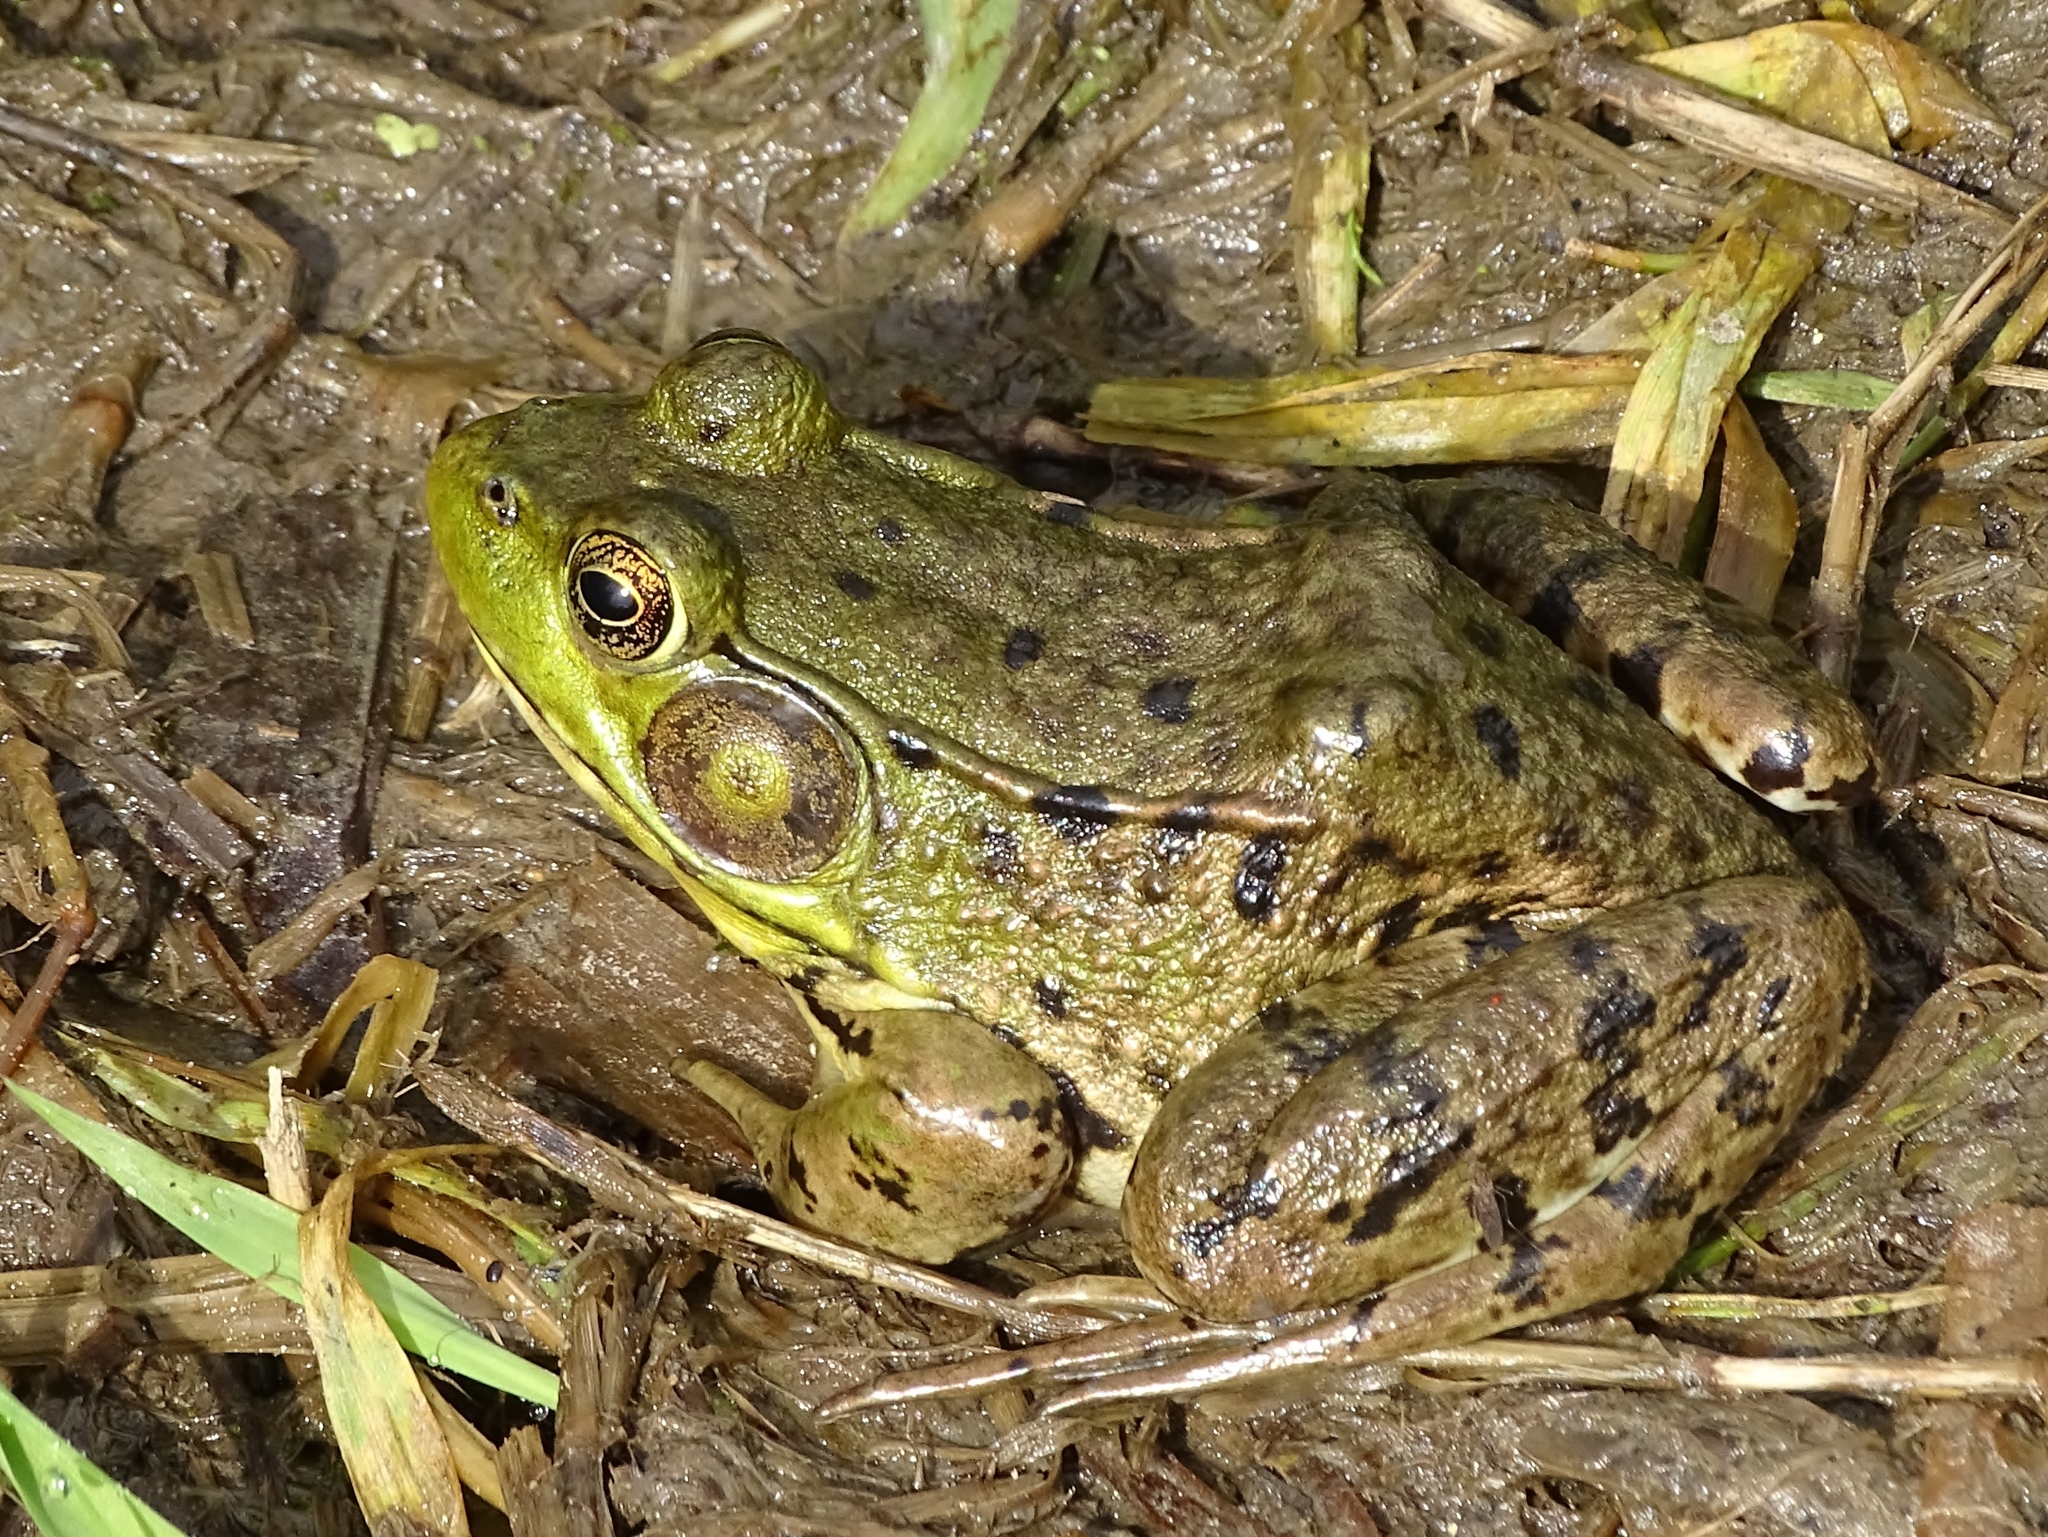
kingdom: Animalia
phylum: Chordata
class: Amphibia
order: Anura
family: Ranidae
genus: Lithobates
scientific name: Lithobates clamitans
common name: Green frog
